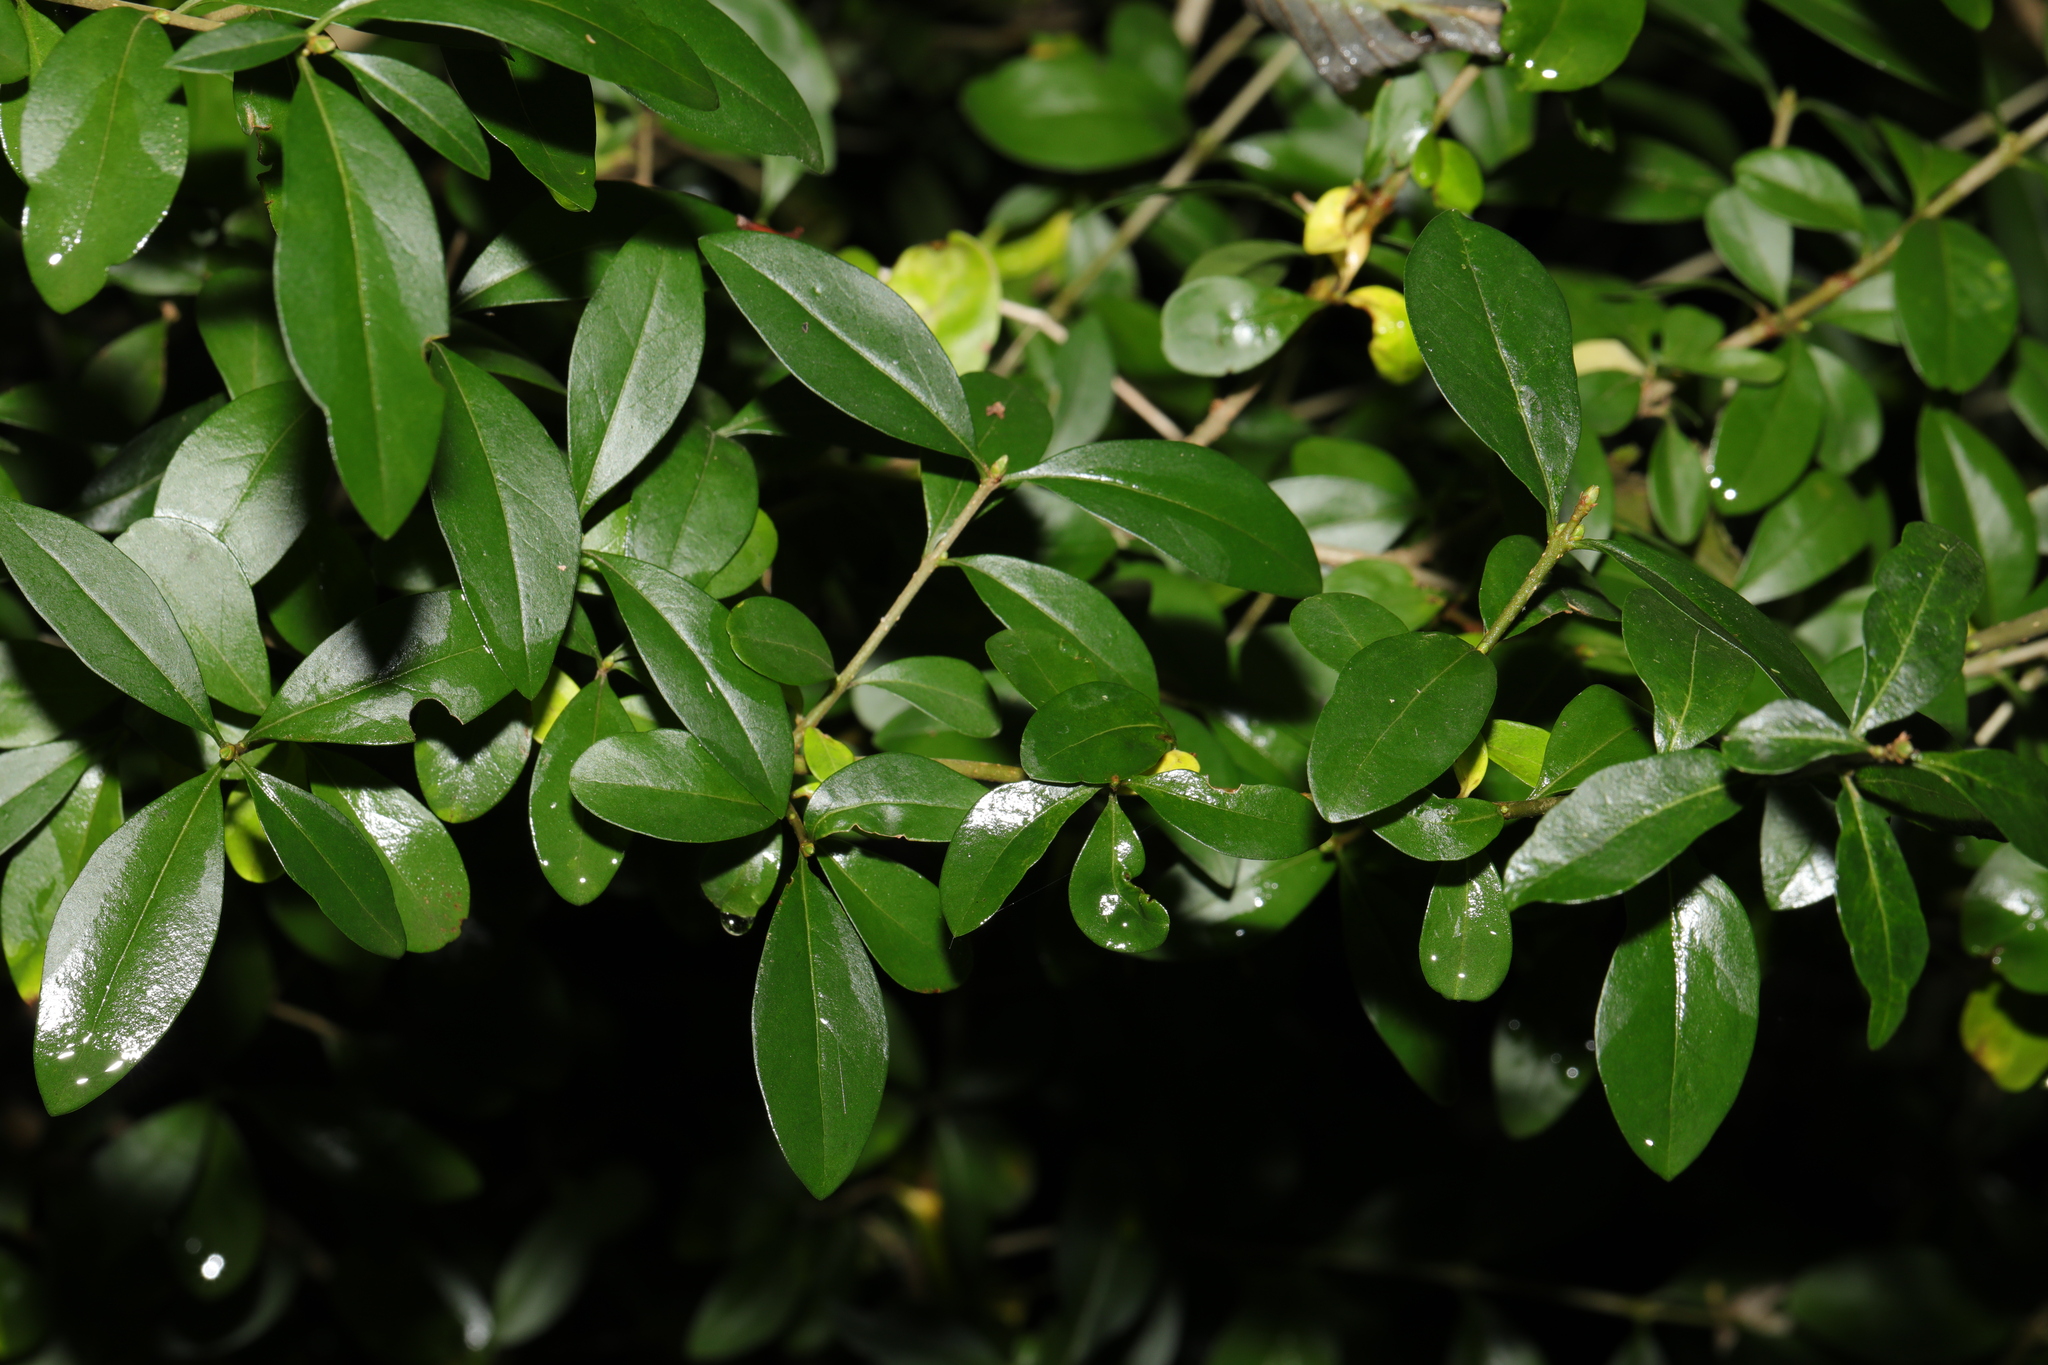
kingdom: Plantae
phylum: Tracheophyta
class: Magnoliopsida
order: Lamiales
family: Oleaceae
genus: Ligustrum
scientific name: Ligustrum vulgare
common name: Wild privet
